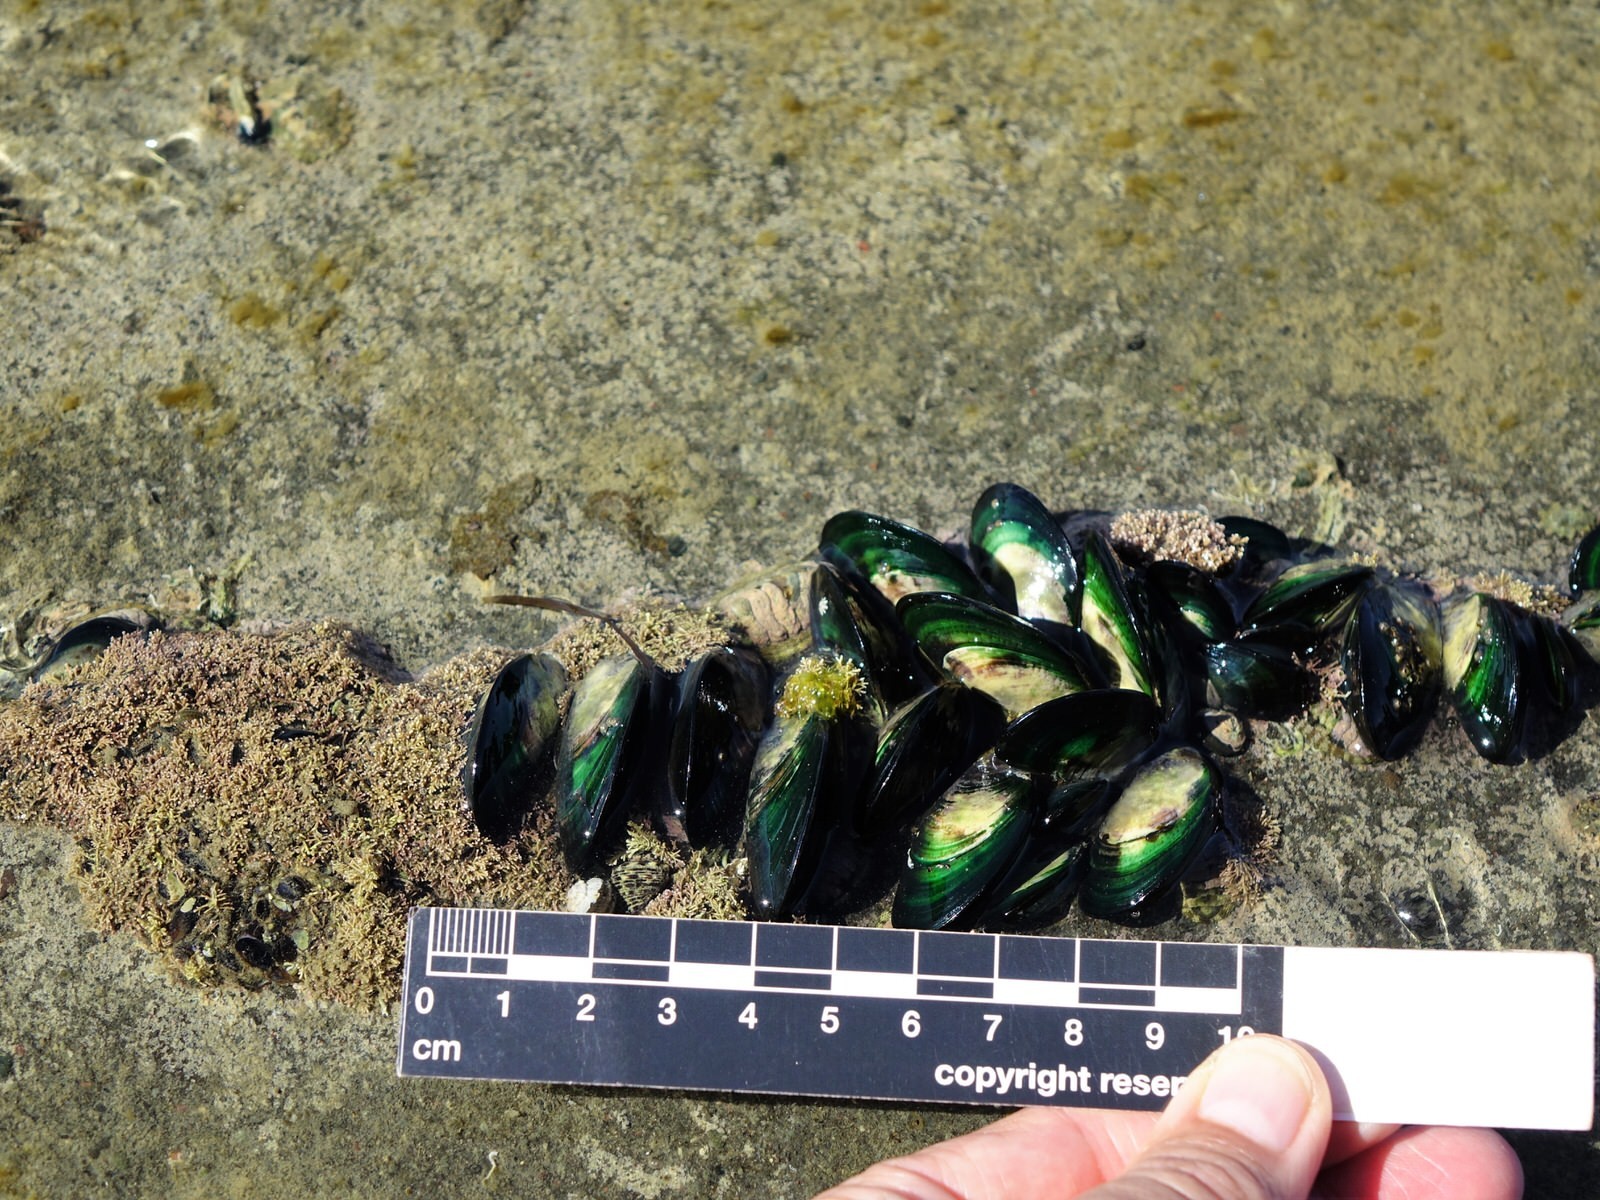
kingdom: Animalia
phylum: Mollusca
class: Bivalvia
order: Mytilida
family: Mytilidae
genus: Perna
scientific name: Perna canaliculus
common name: New zealand greenshelltm
